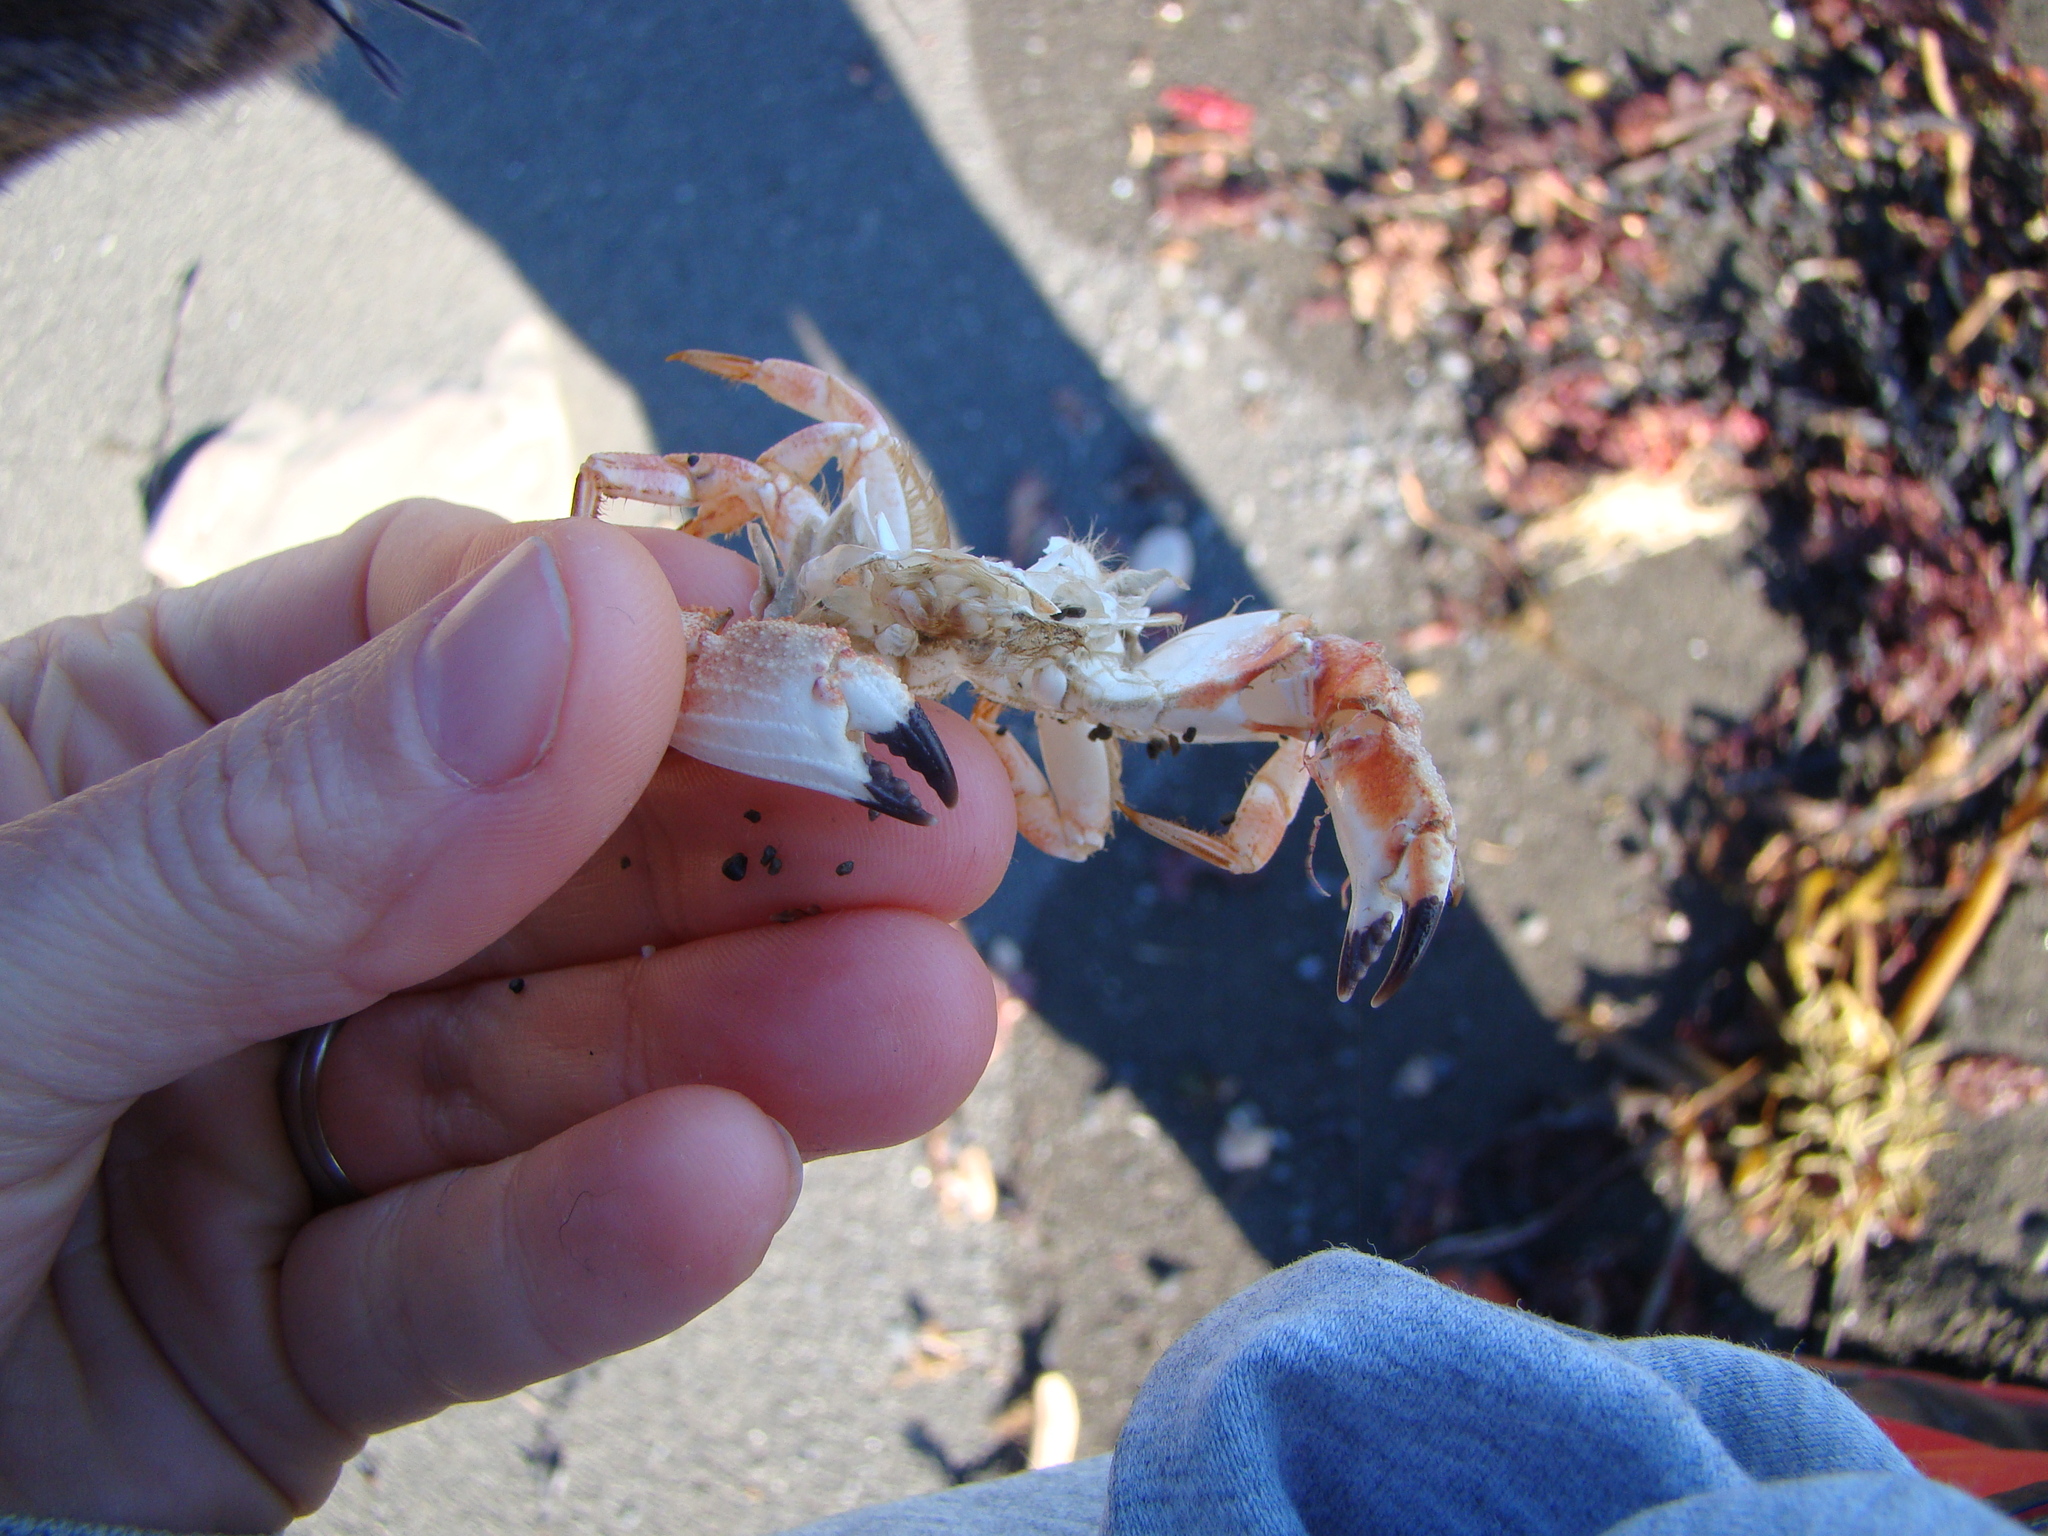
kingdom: Animalia
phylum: Arthropoda
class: Malacostraca
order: Decapoda
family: Cancridae
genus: Metacarcinus
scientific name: Metacarcinus novaezelandiae
